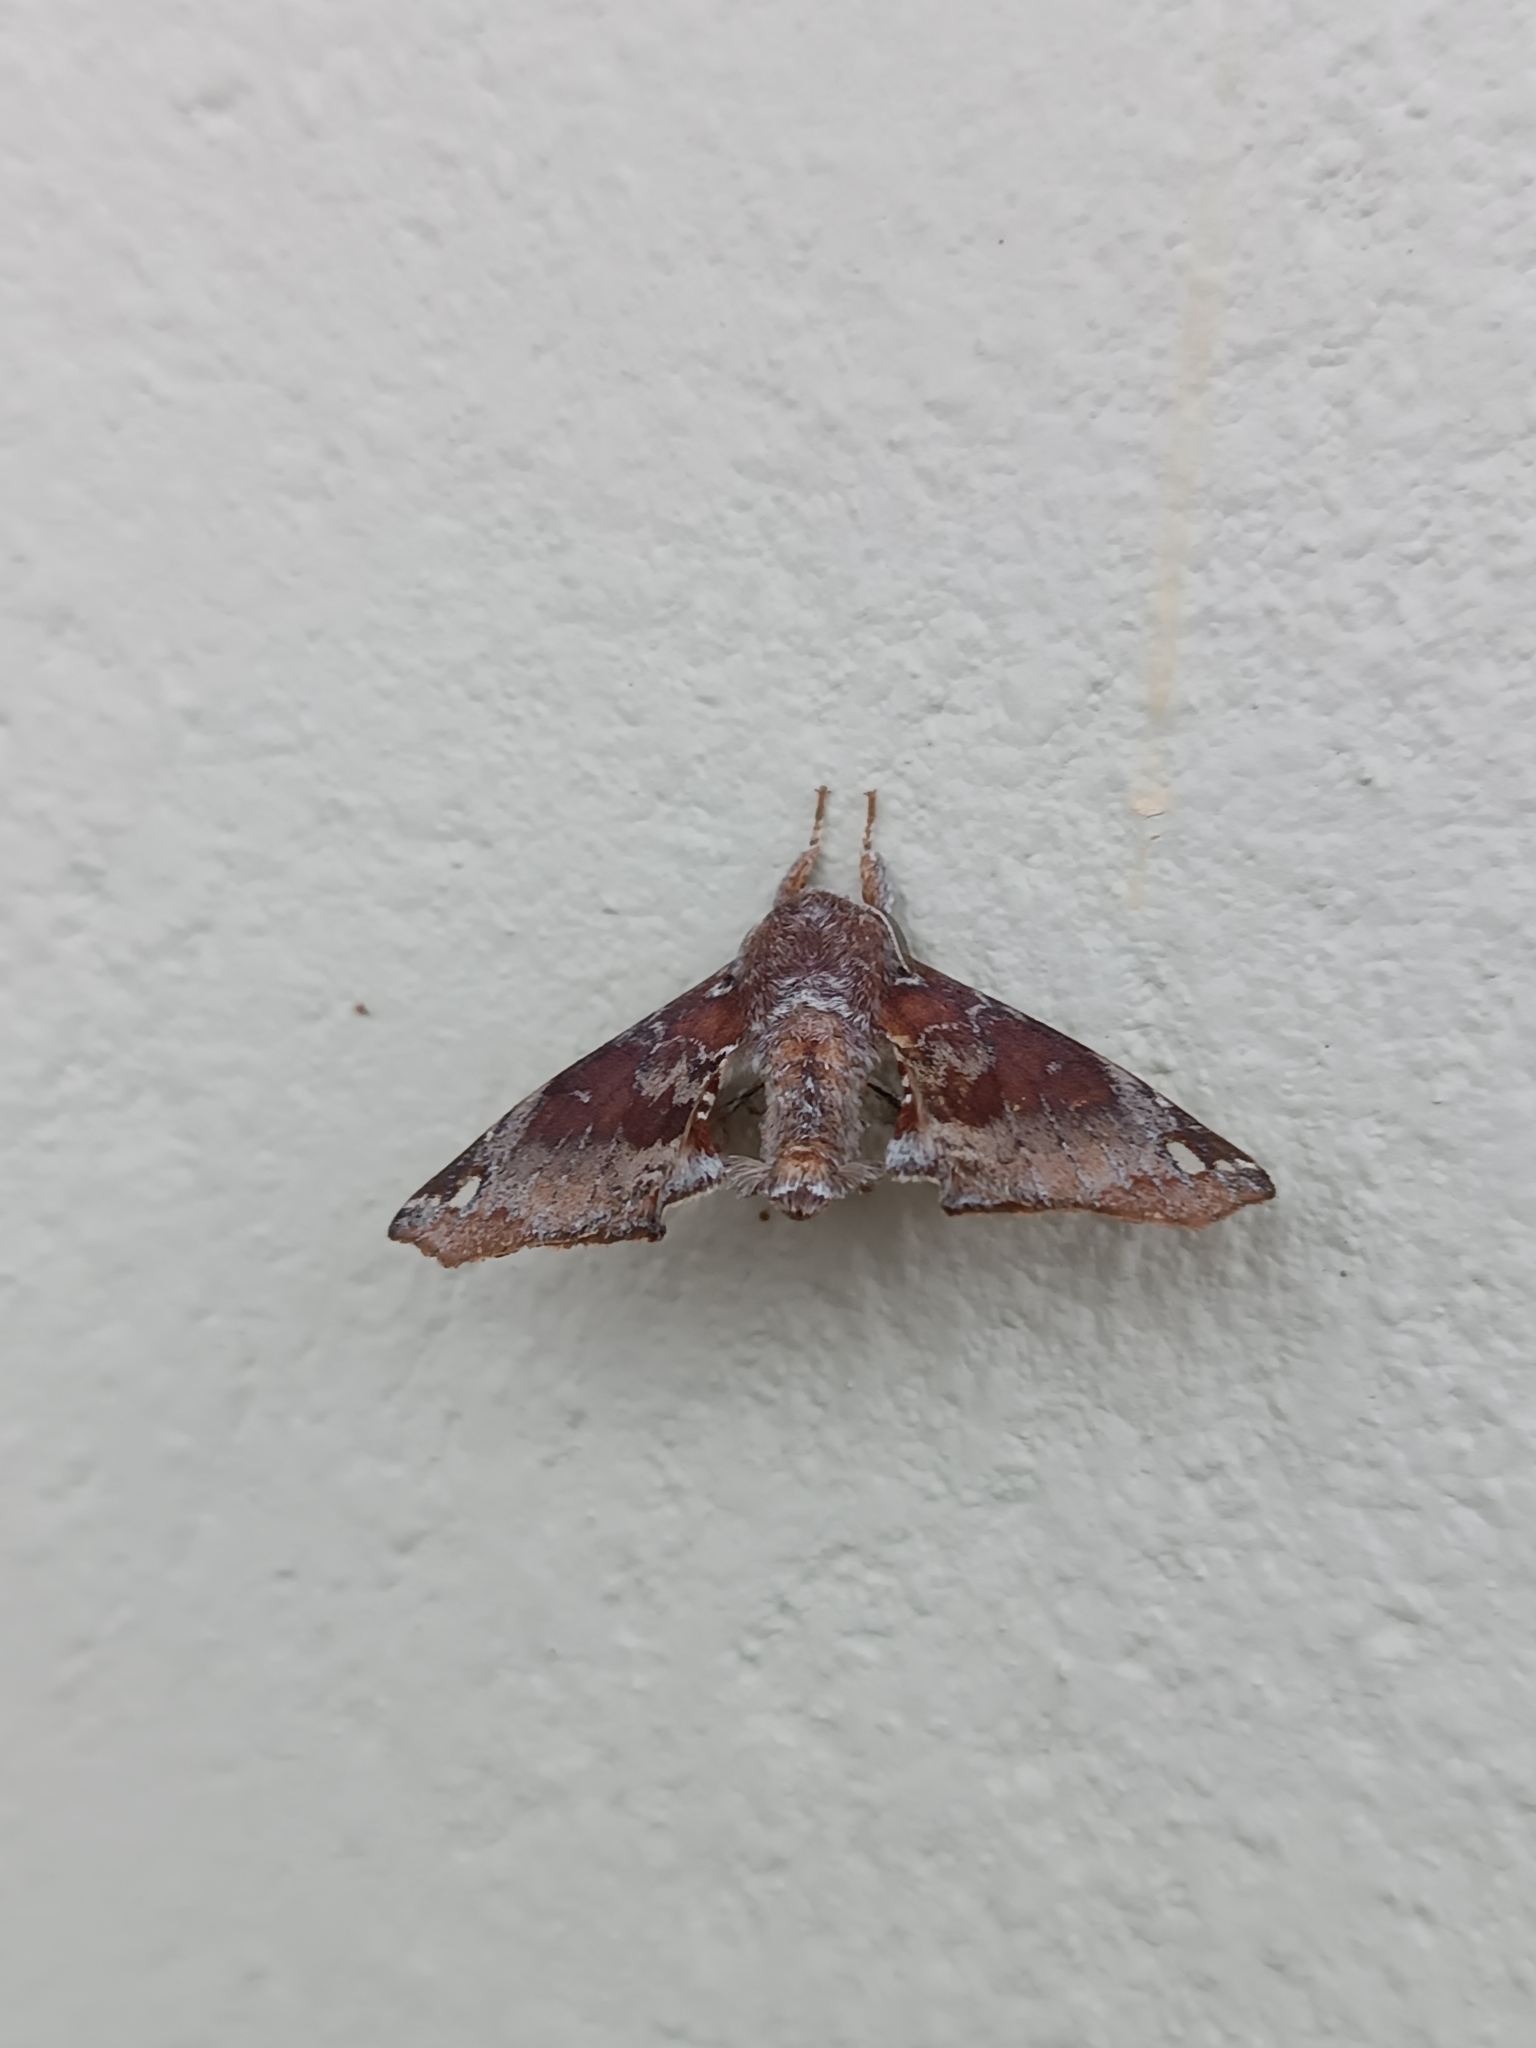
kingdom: Animalia
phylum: Arthropoda
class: Insecta
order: Lepidoptera
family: Apatelodidae
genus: Hygrochroa
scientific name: Hygrochroa Apatelodes ardeola
